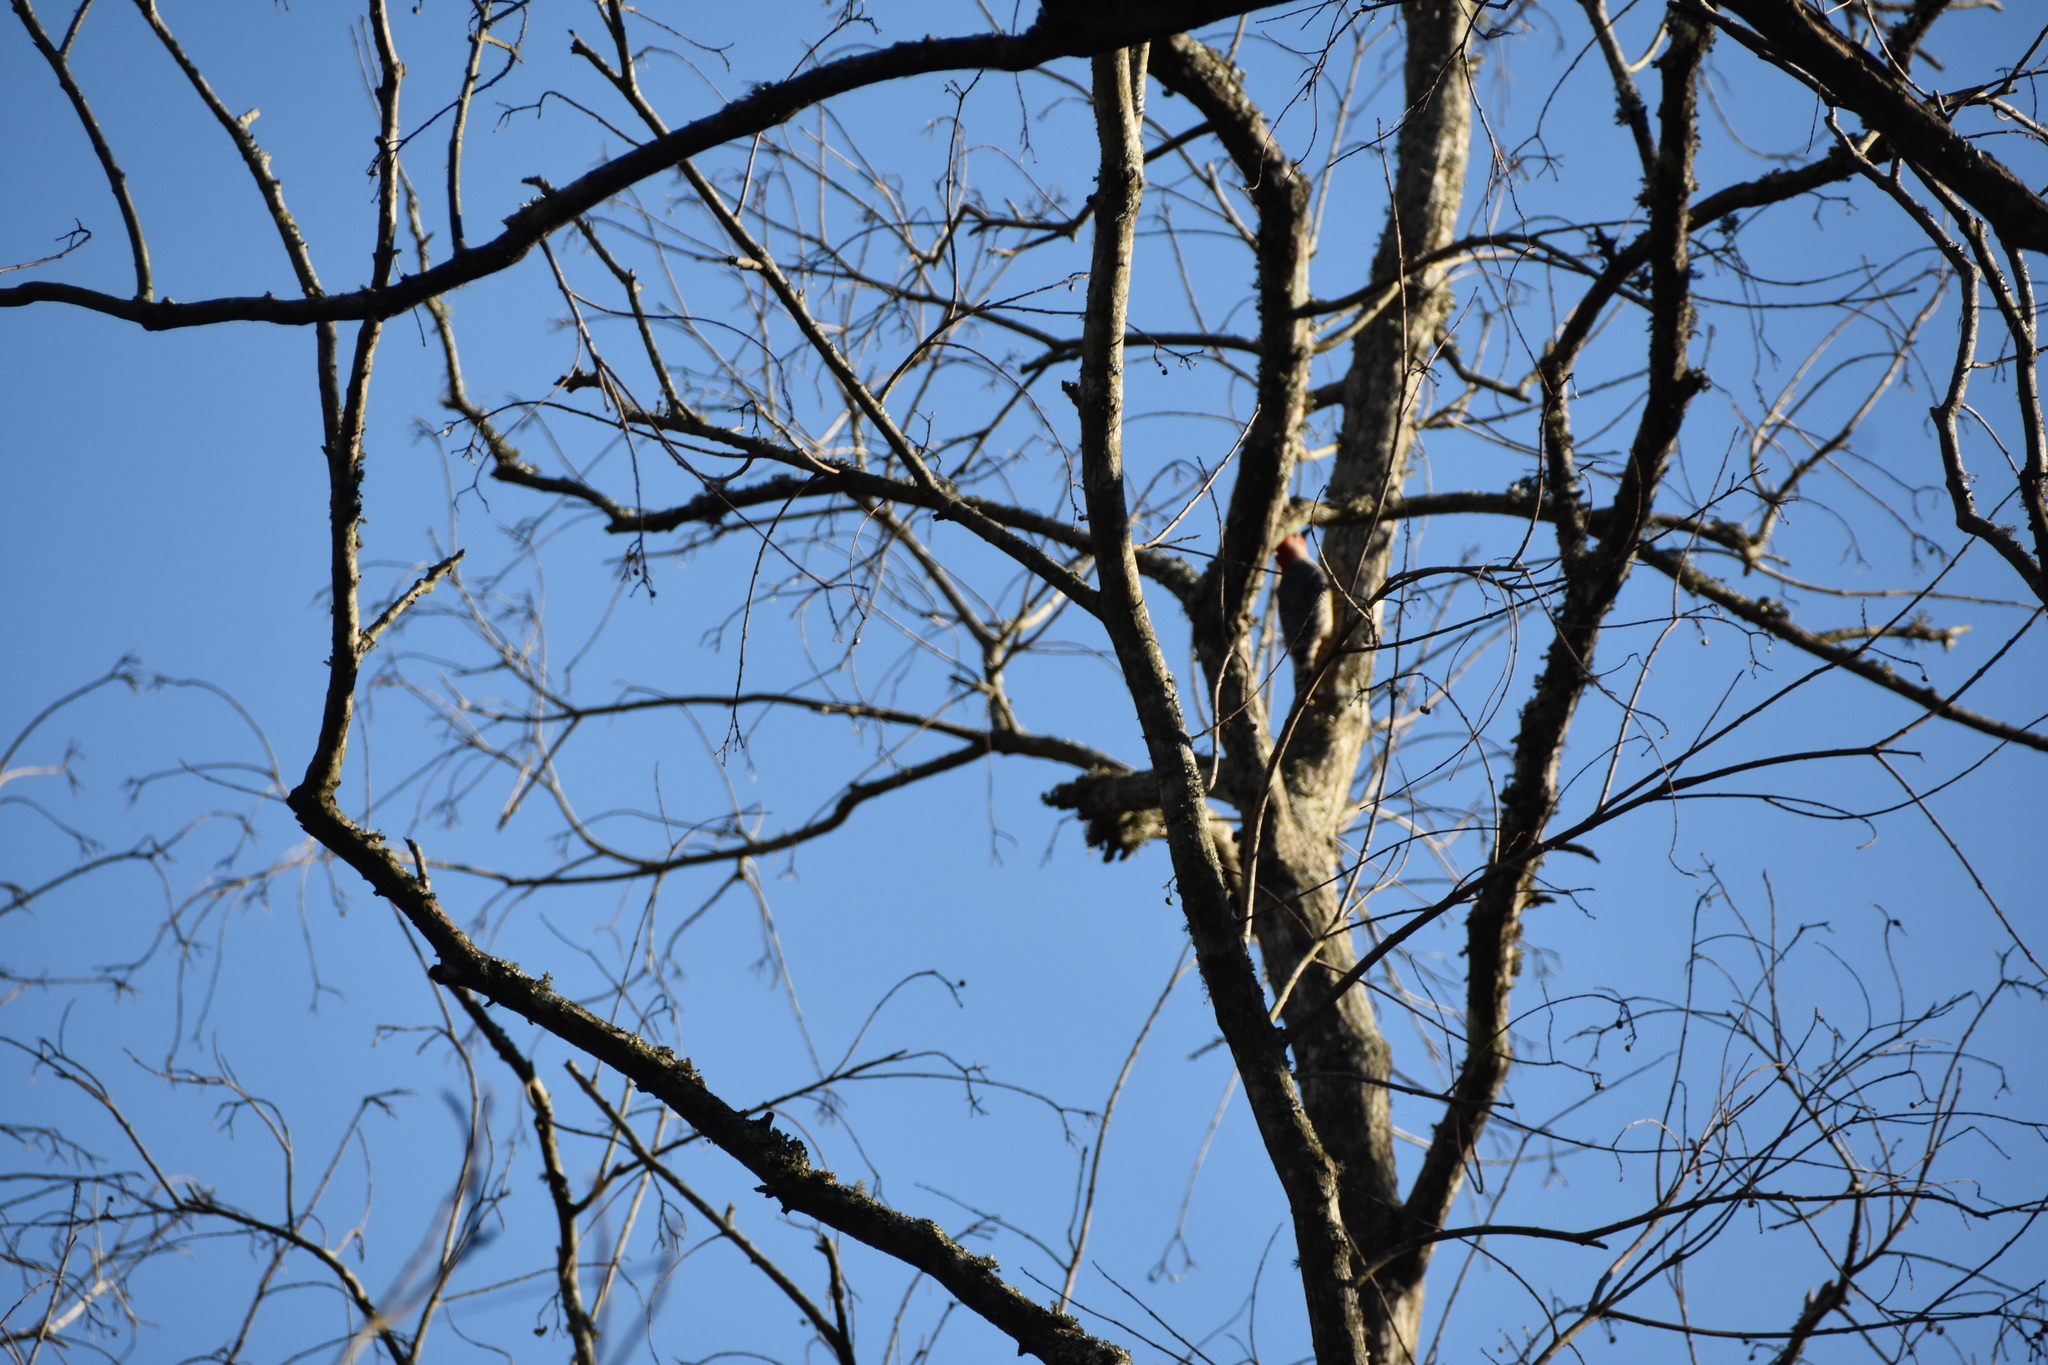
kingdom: Animalia
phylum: Chordata
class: Aves
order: Piciformes
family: Picidae
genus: Melanerpes
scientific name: Melanerpes carolinus
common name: Red-bellied woodpecker
